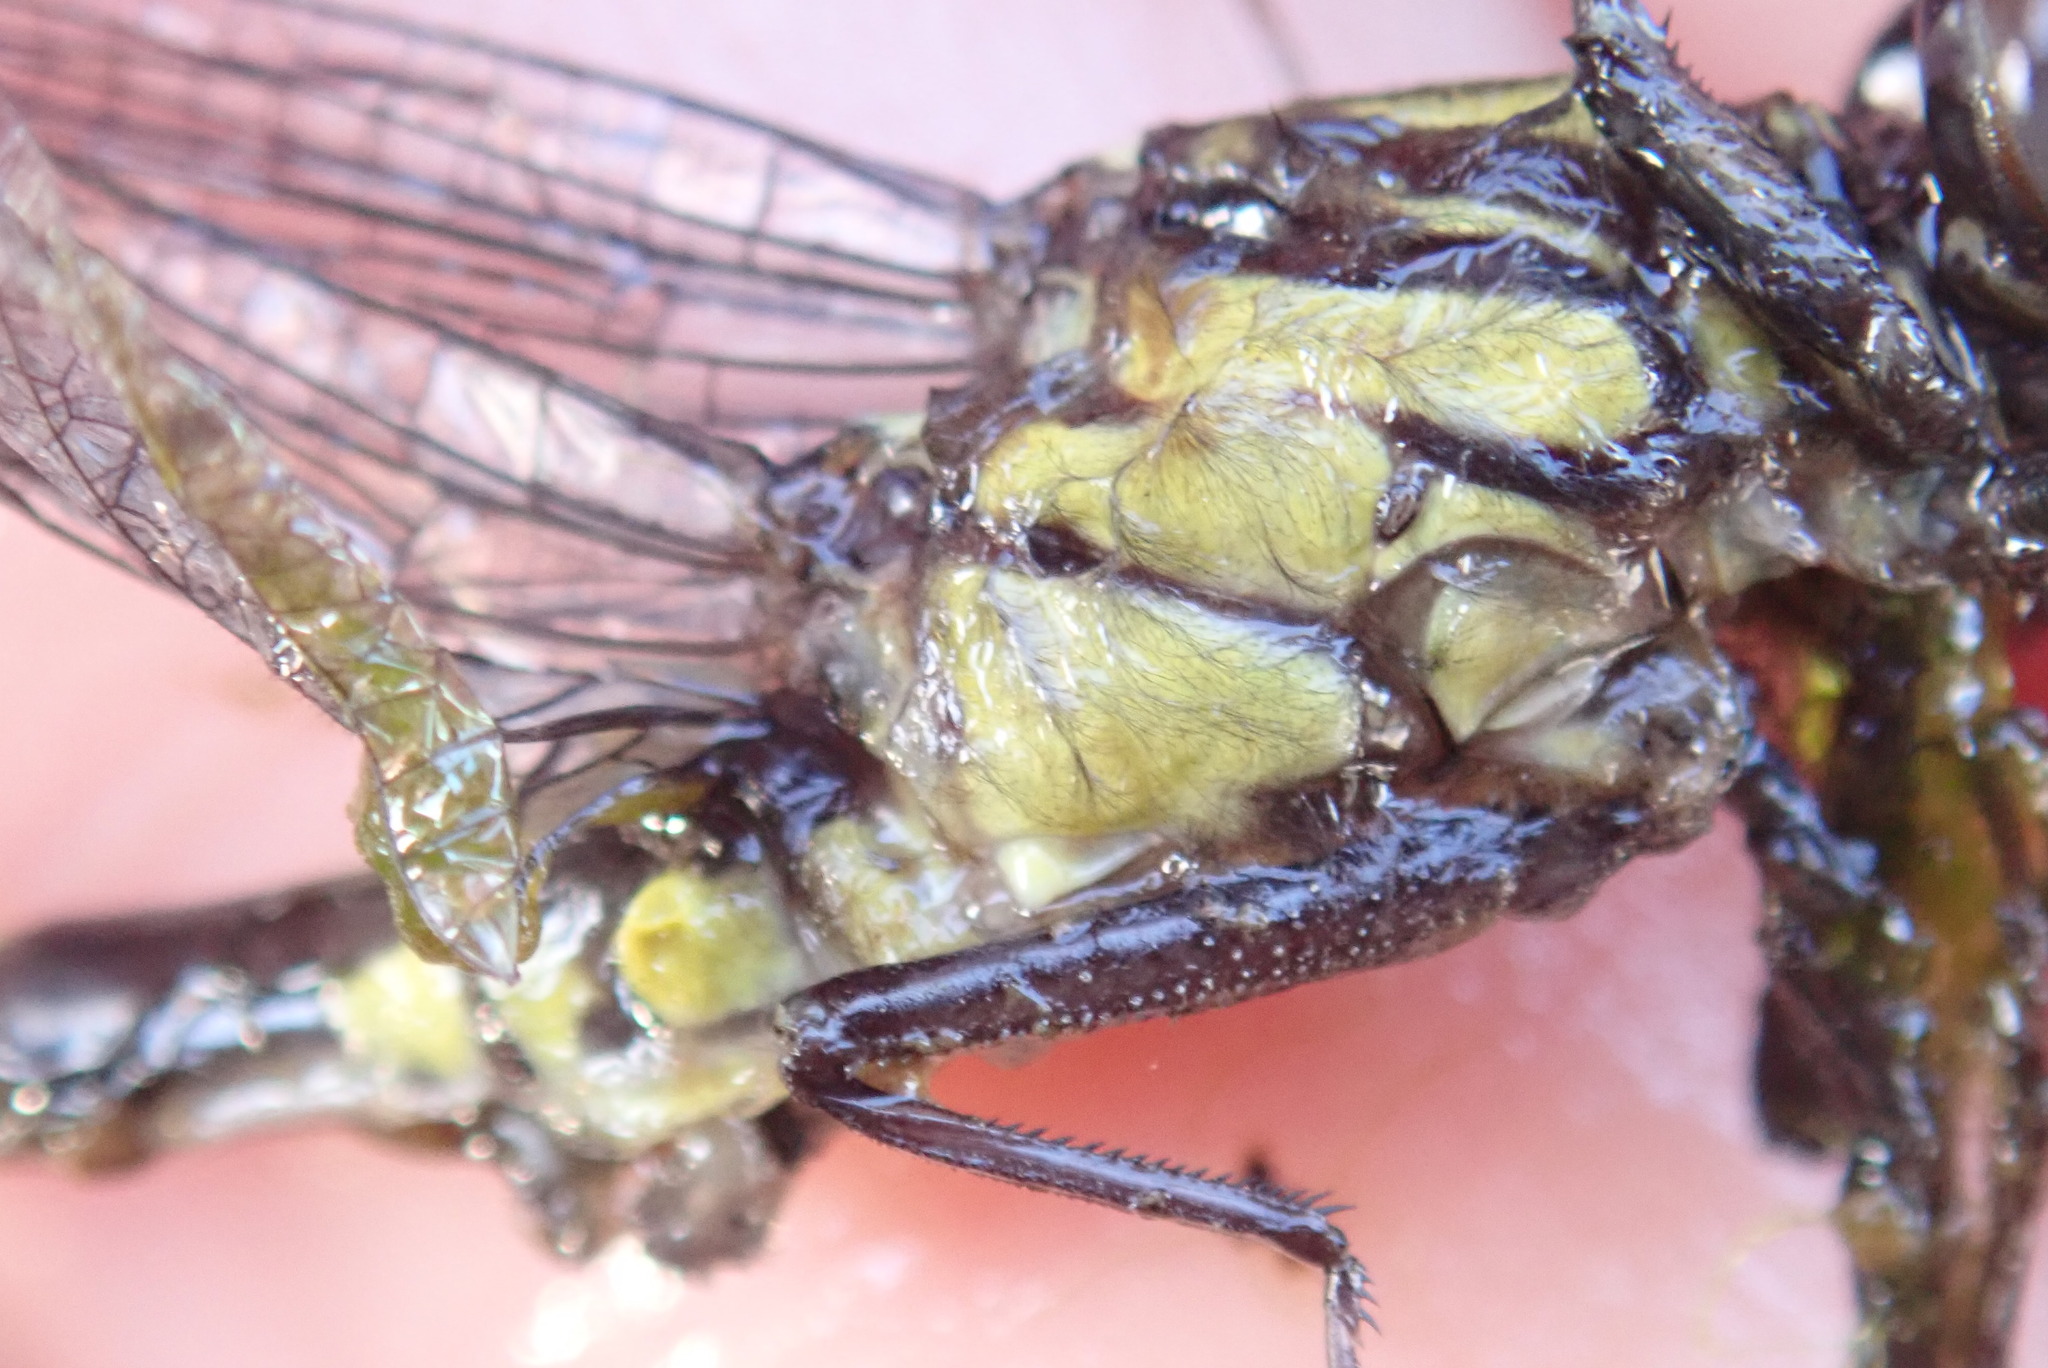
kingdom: Animalia
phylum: Arthropoda
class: Insecta
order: Odonata
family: Gomphidae
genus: Hylogomphus
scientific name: Hylogomphus adelphus
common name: Mustached clubtail
